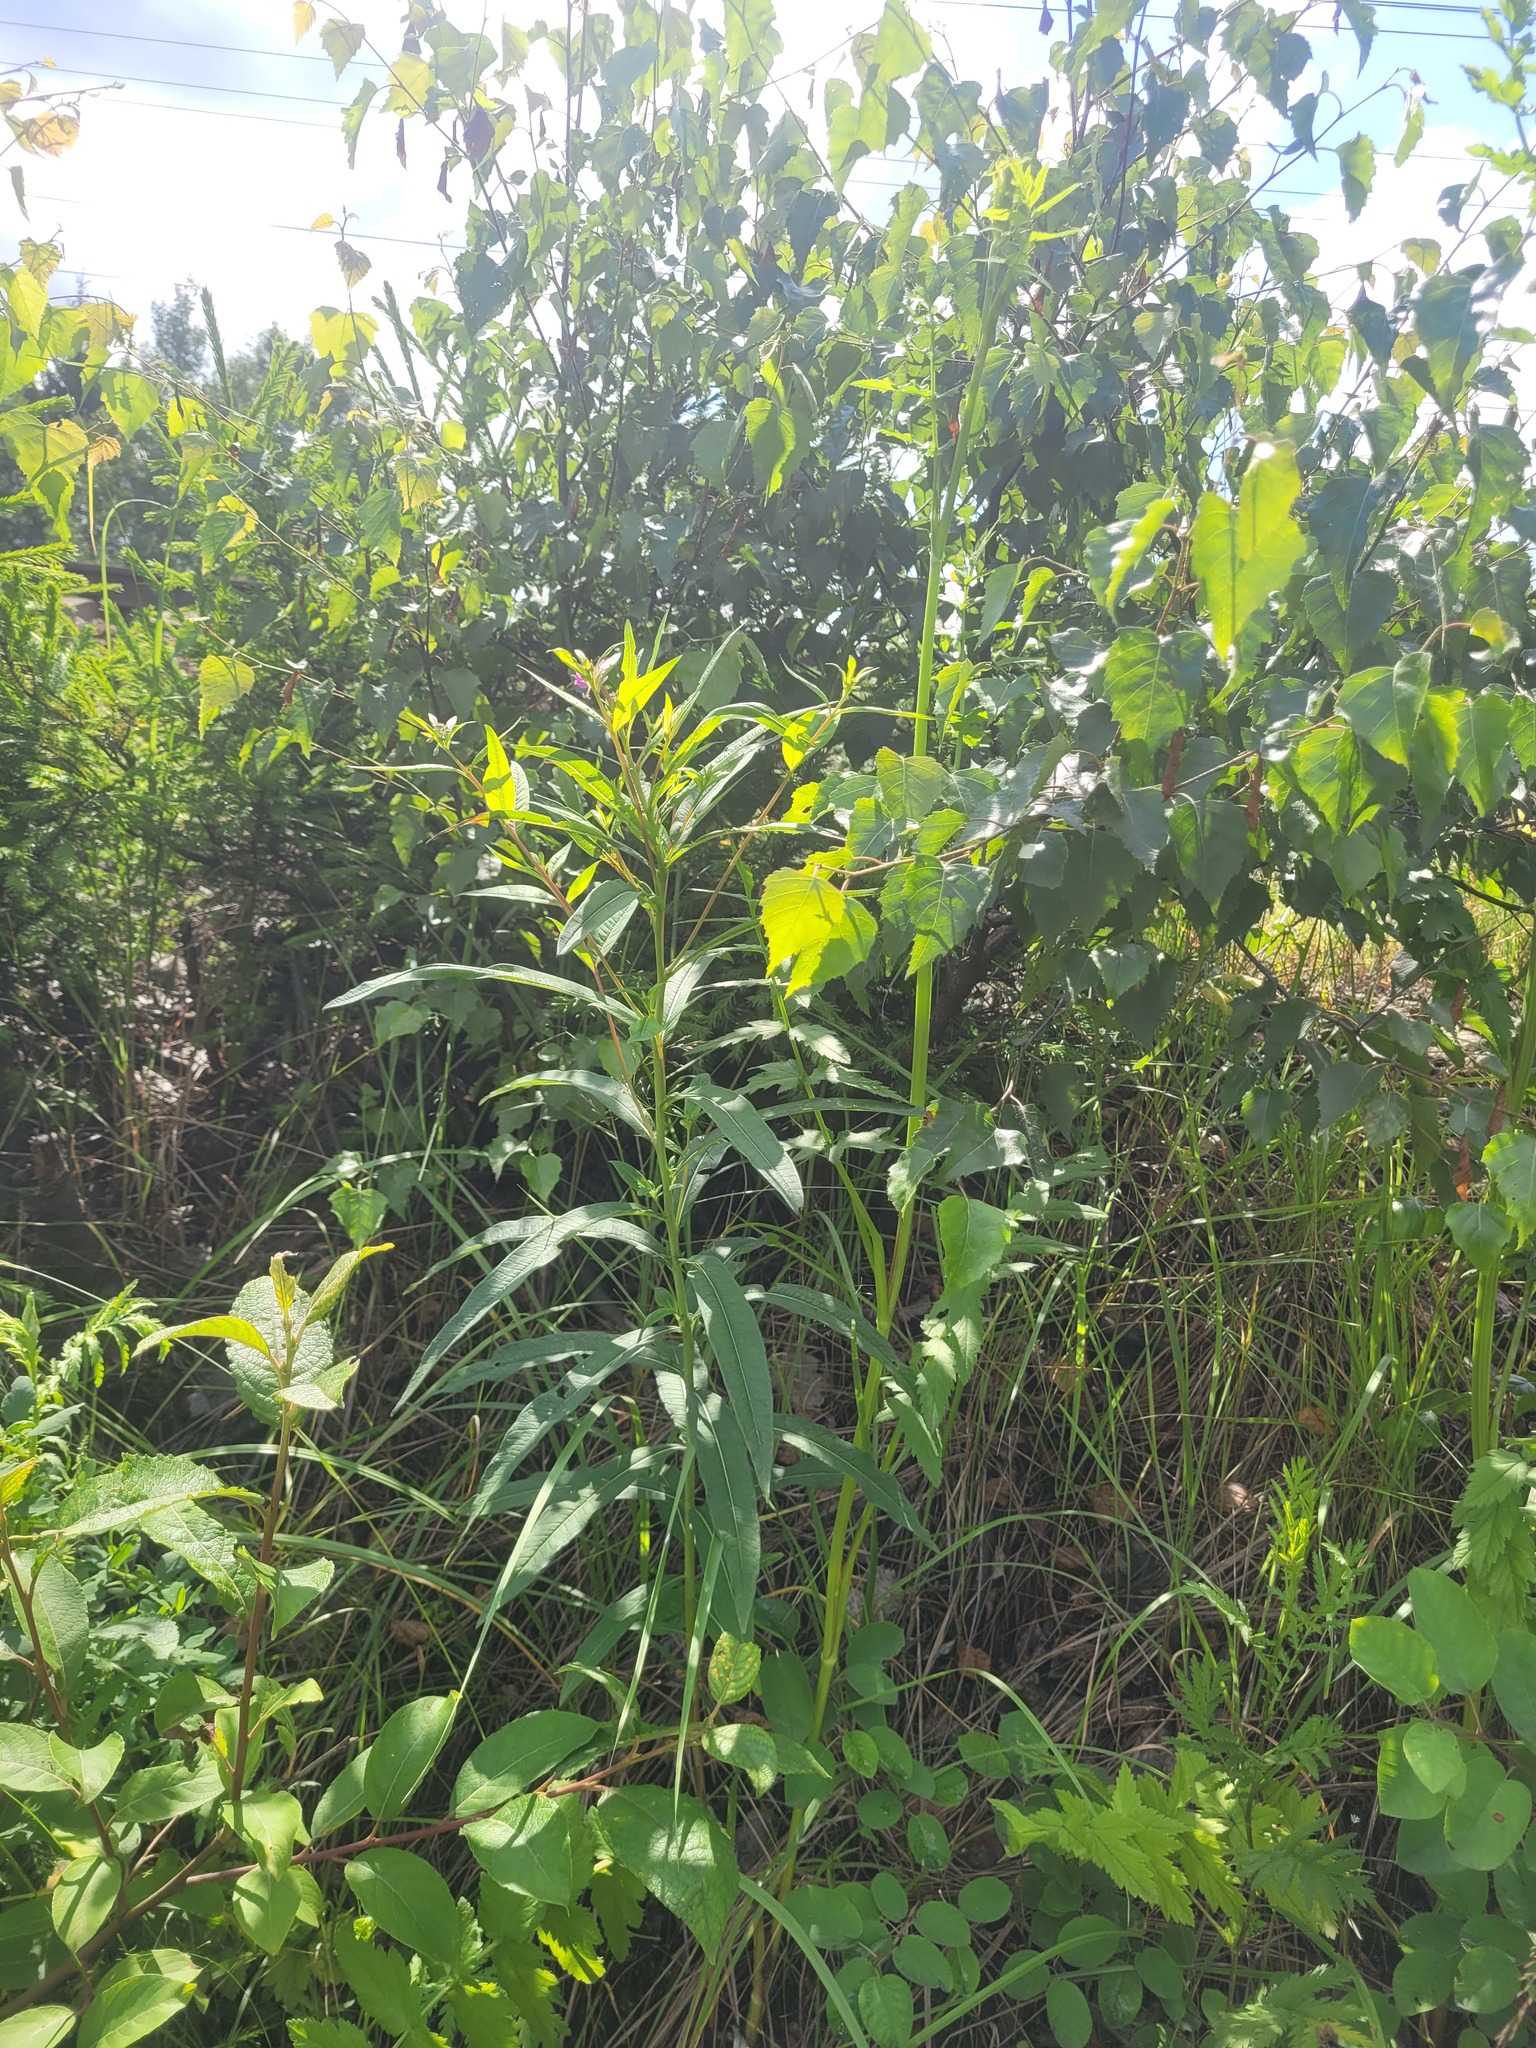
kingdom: Plantae
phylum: Tracheophyta
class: Magnoliopsida
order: Myrtales
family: Onagraceae
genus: Chamaenerion
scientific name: Chamaenerion angustifolium
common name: Fireweed
